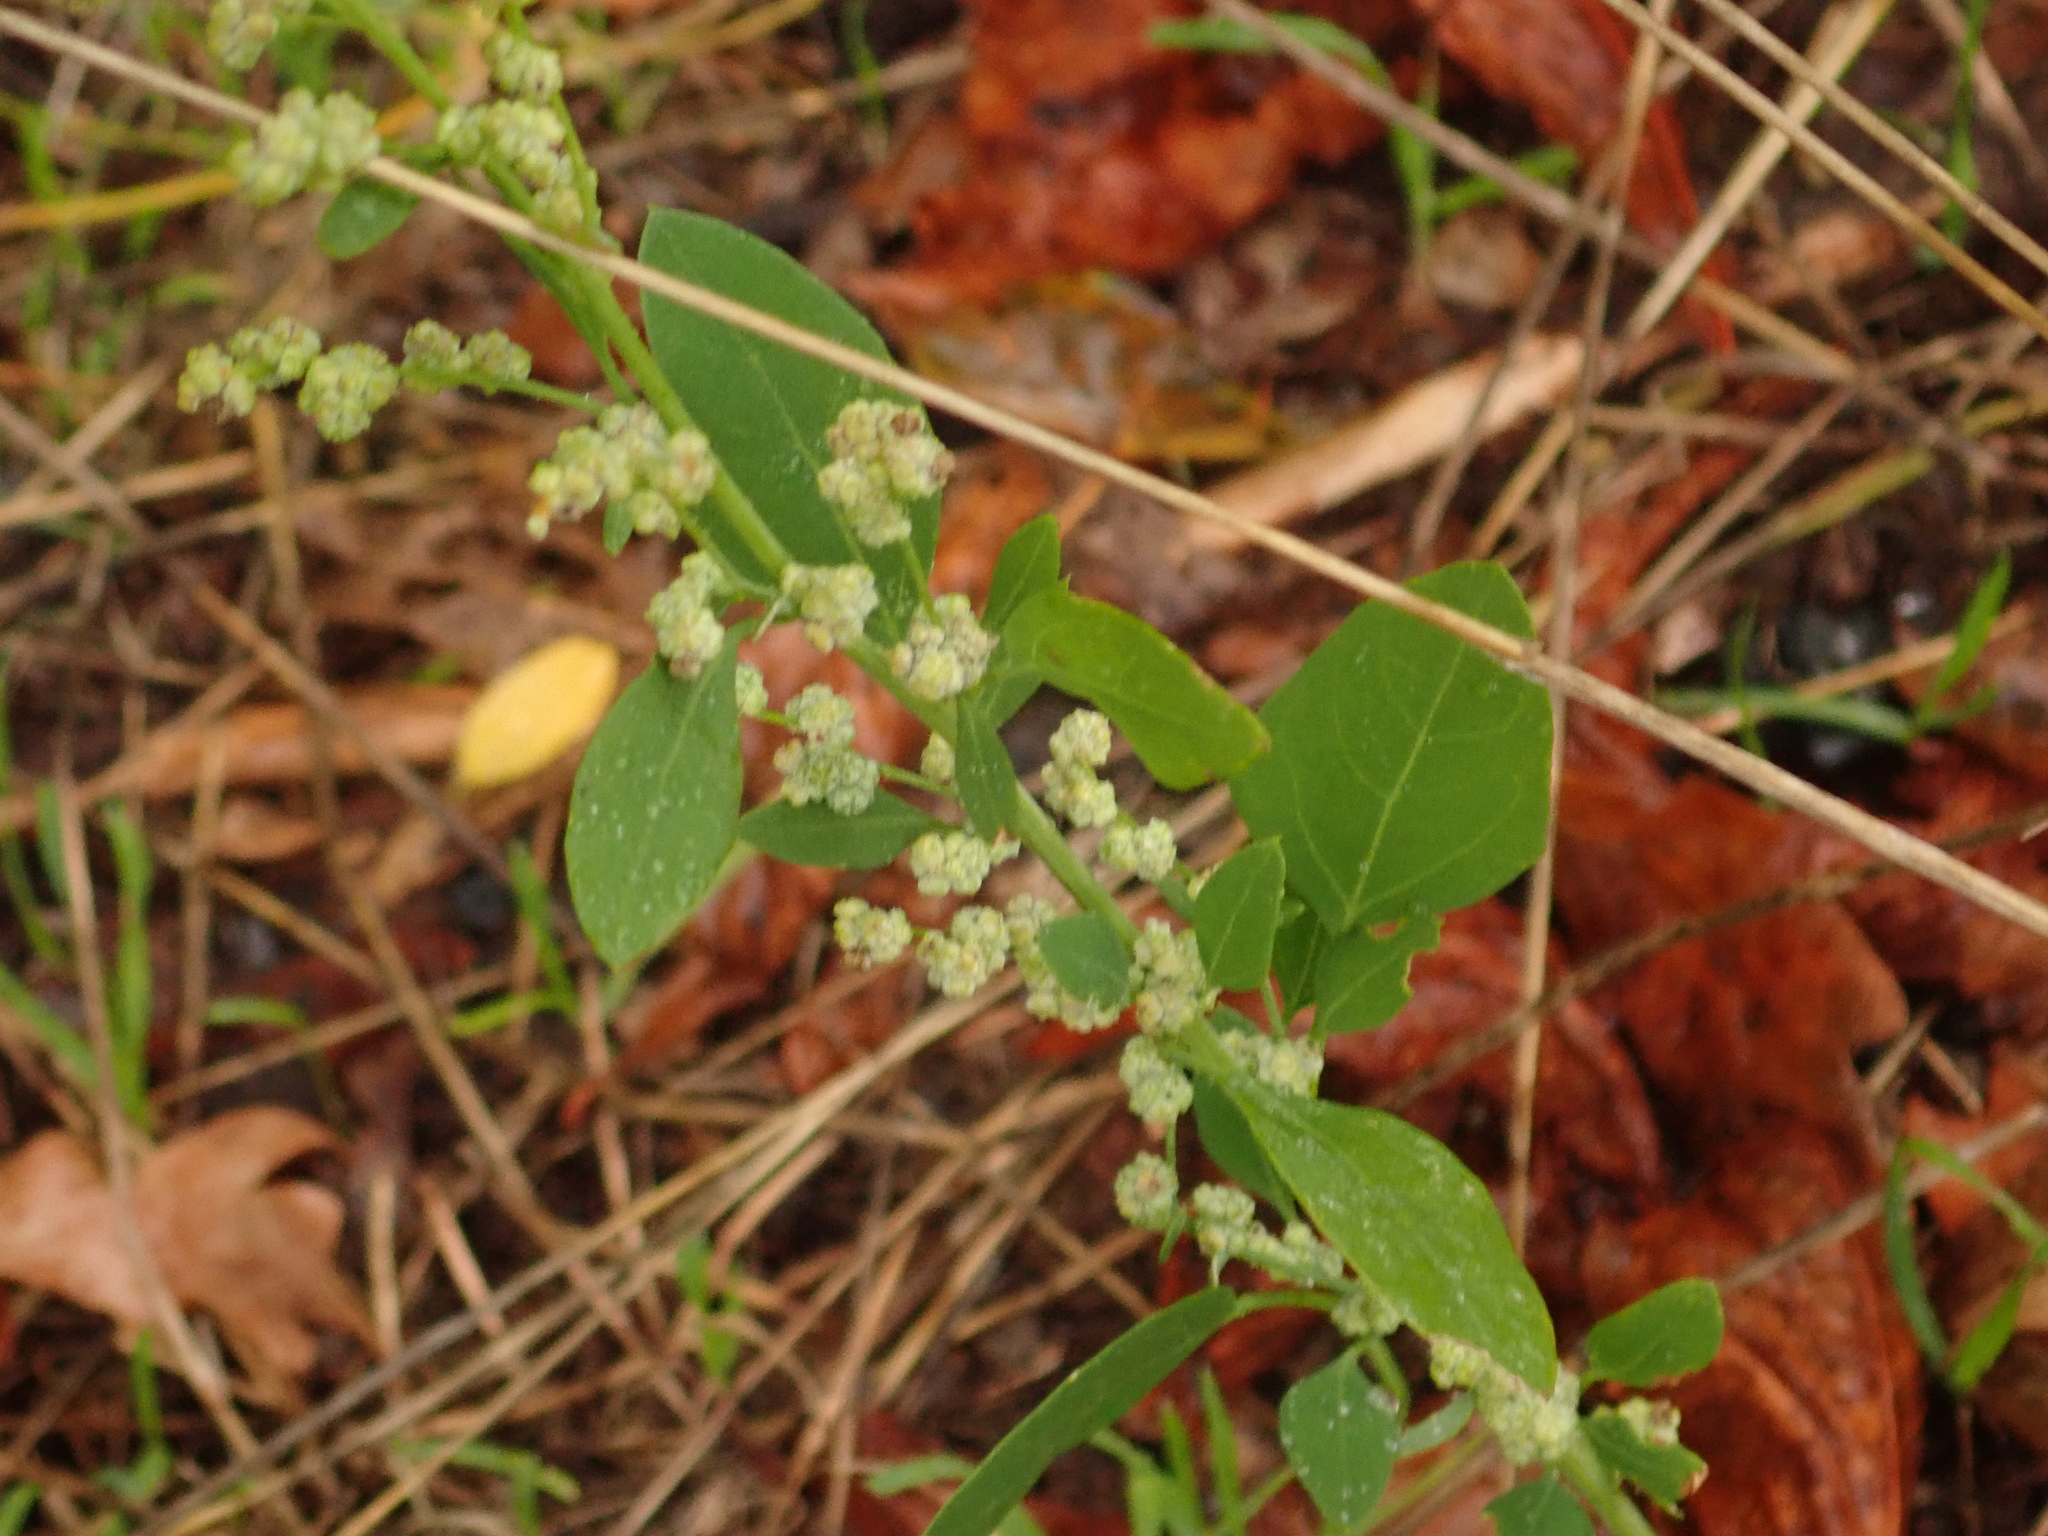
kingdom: Plantae
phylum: Tracheophyta
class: Magnoliopsida
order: Caryophyllales
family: Amaranthaceae
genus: Chenopodium
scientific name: Chenopodium album
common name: Fat-hen
